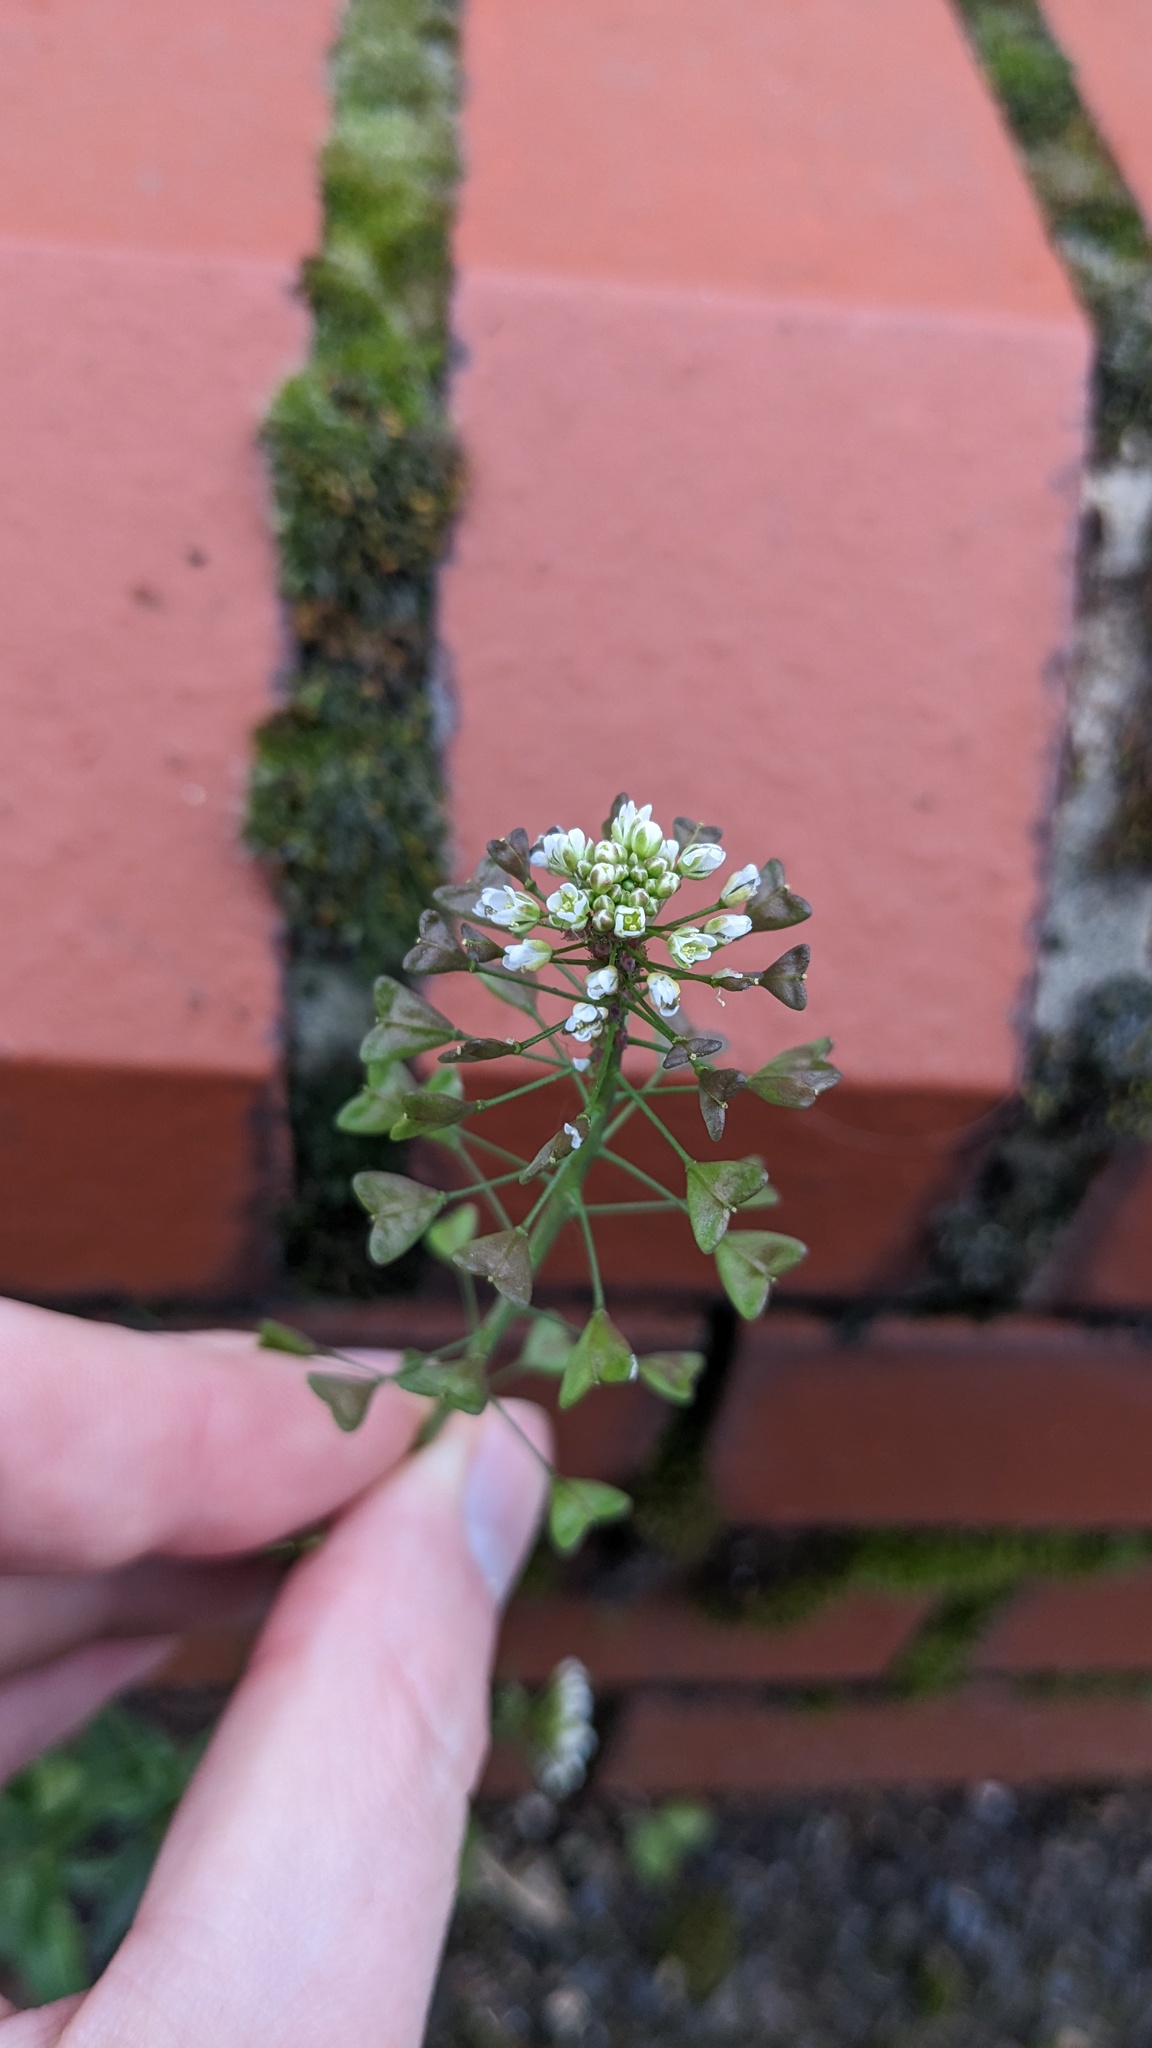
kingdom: Plantae
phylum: Tracheophyta
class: Magnoliopsida
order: Brassicales
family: Brassicaceae
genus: Capsella
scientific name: Capsella bursa-pastoris
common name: Shepherd's purse
